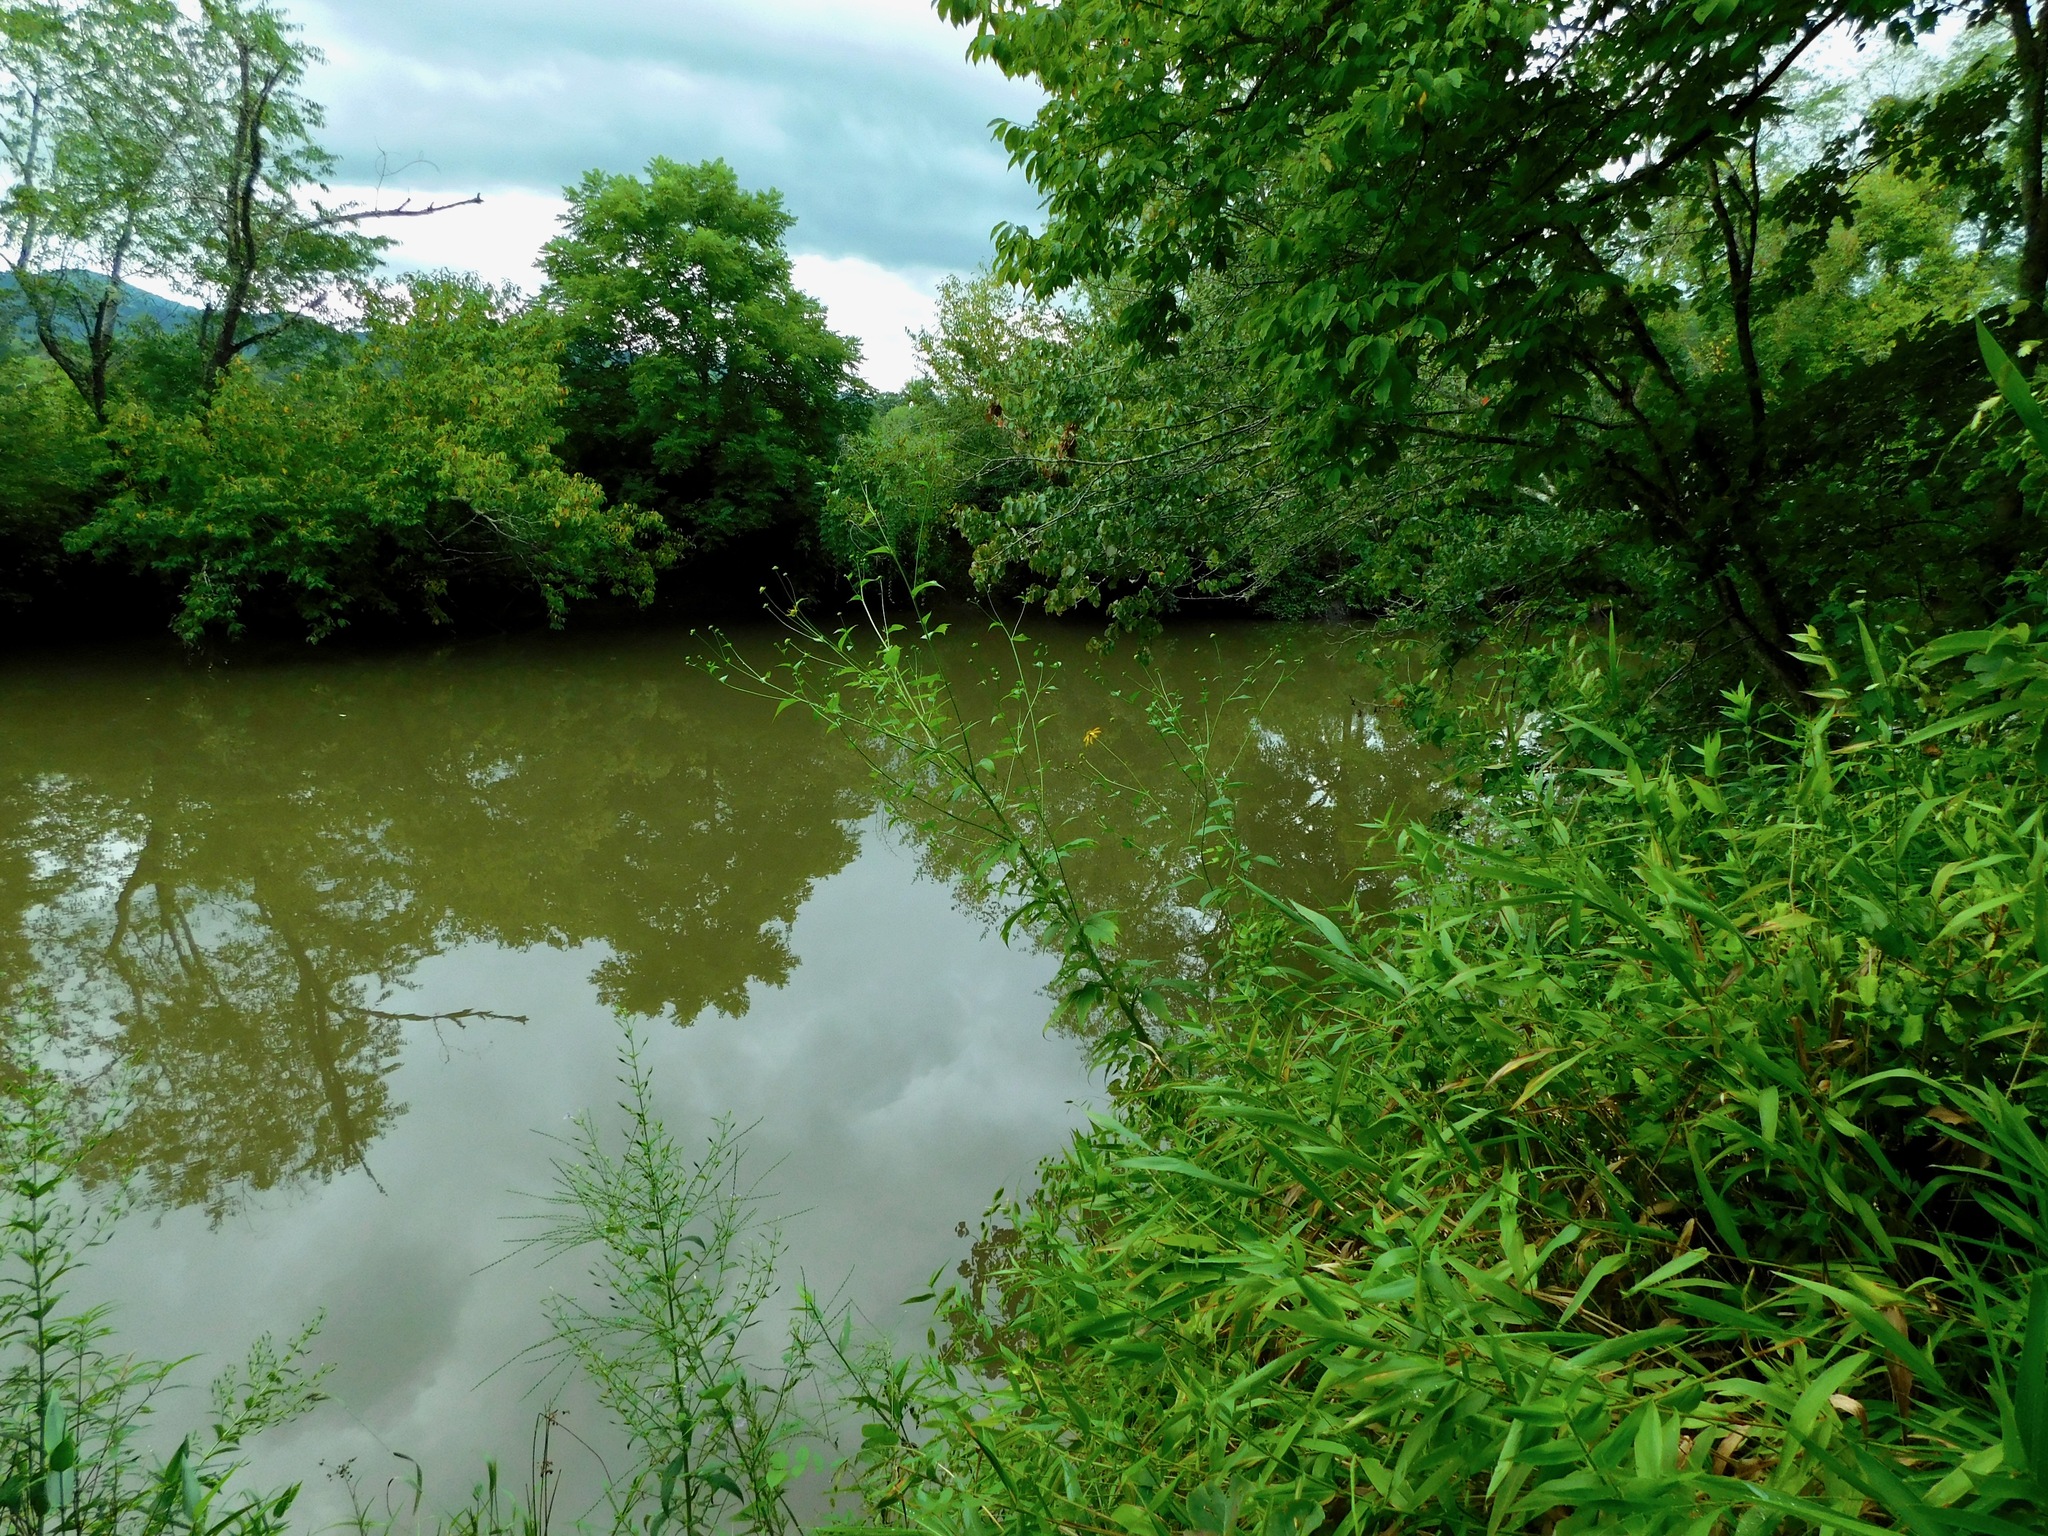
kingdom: Plantae
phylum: Tracheophyta
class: Magnoliopsida
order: Asterales
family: Asteraceae
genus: Rudbeckia
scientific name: Rudbeckia laciniata
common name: Coneflower
